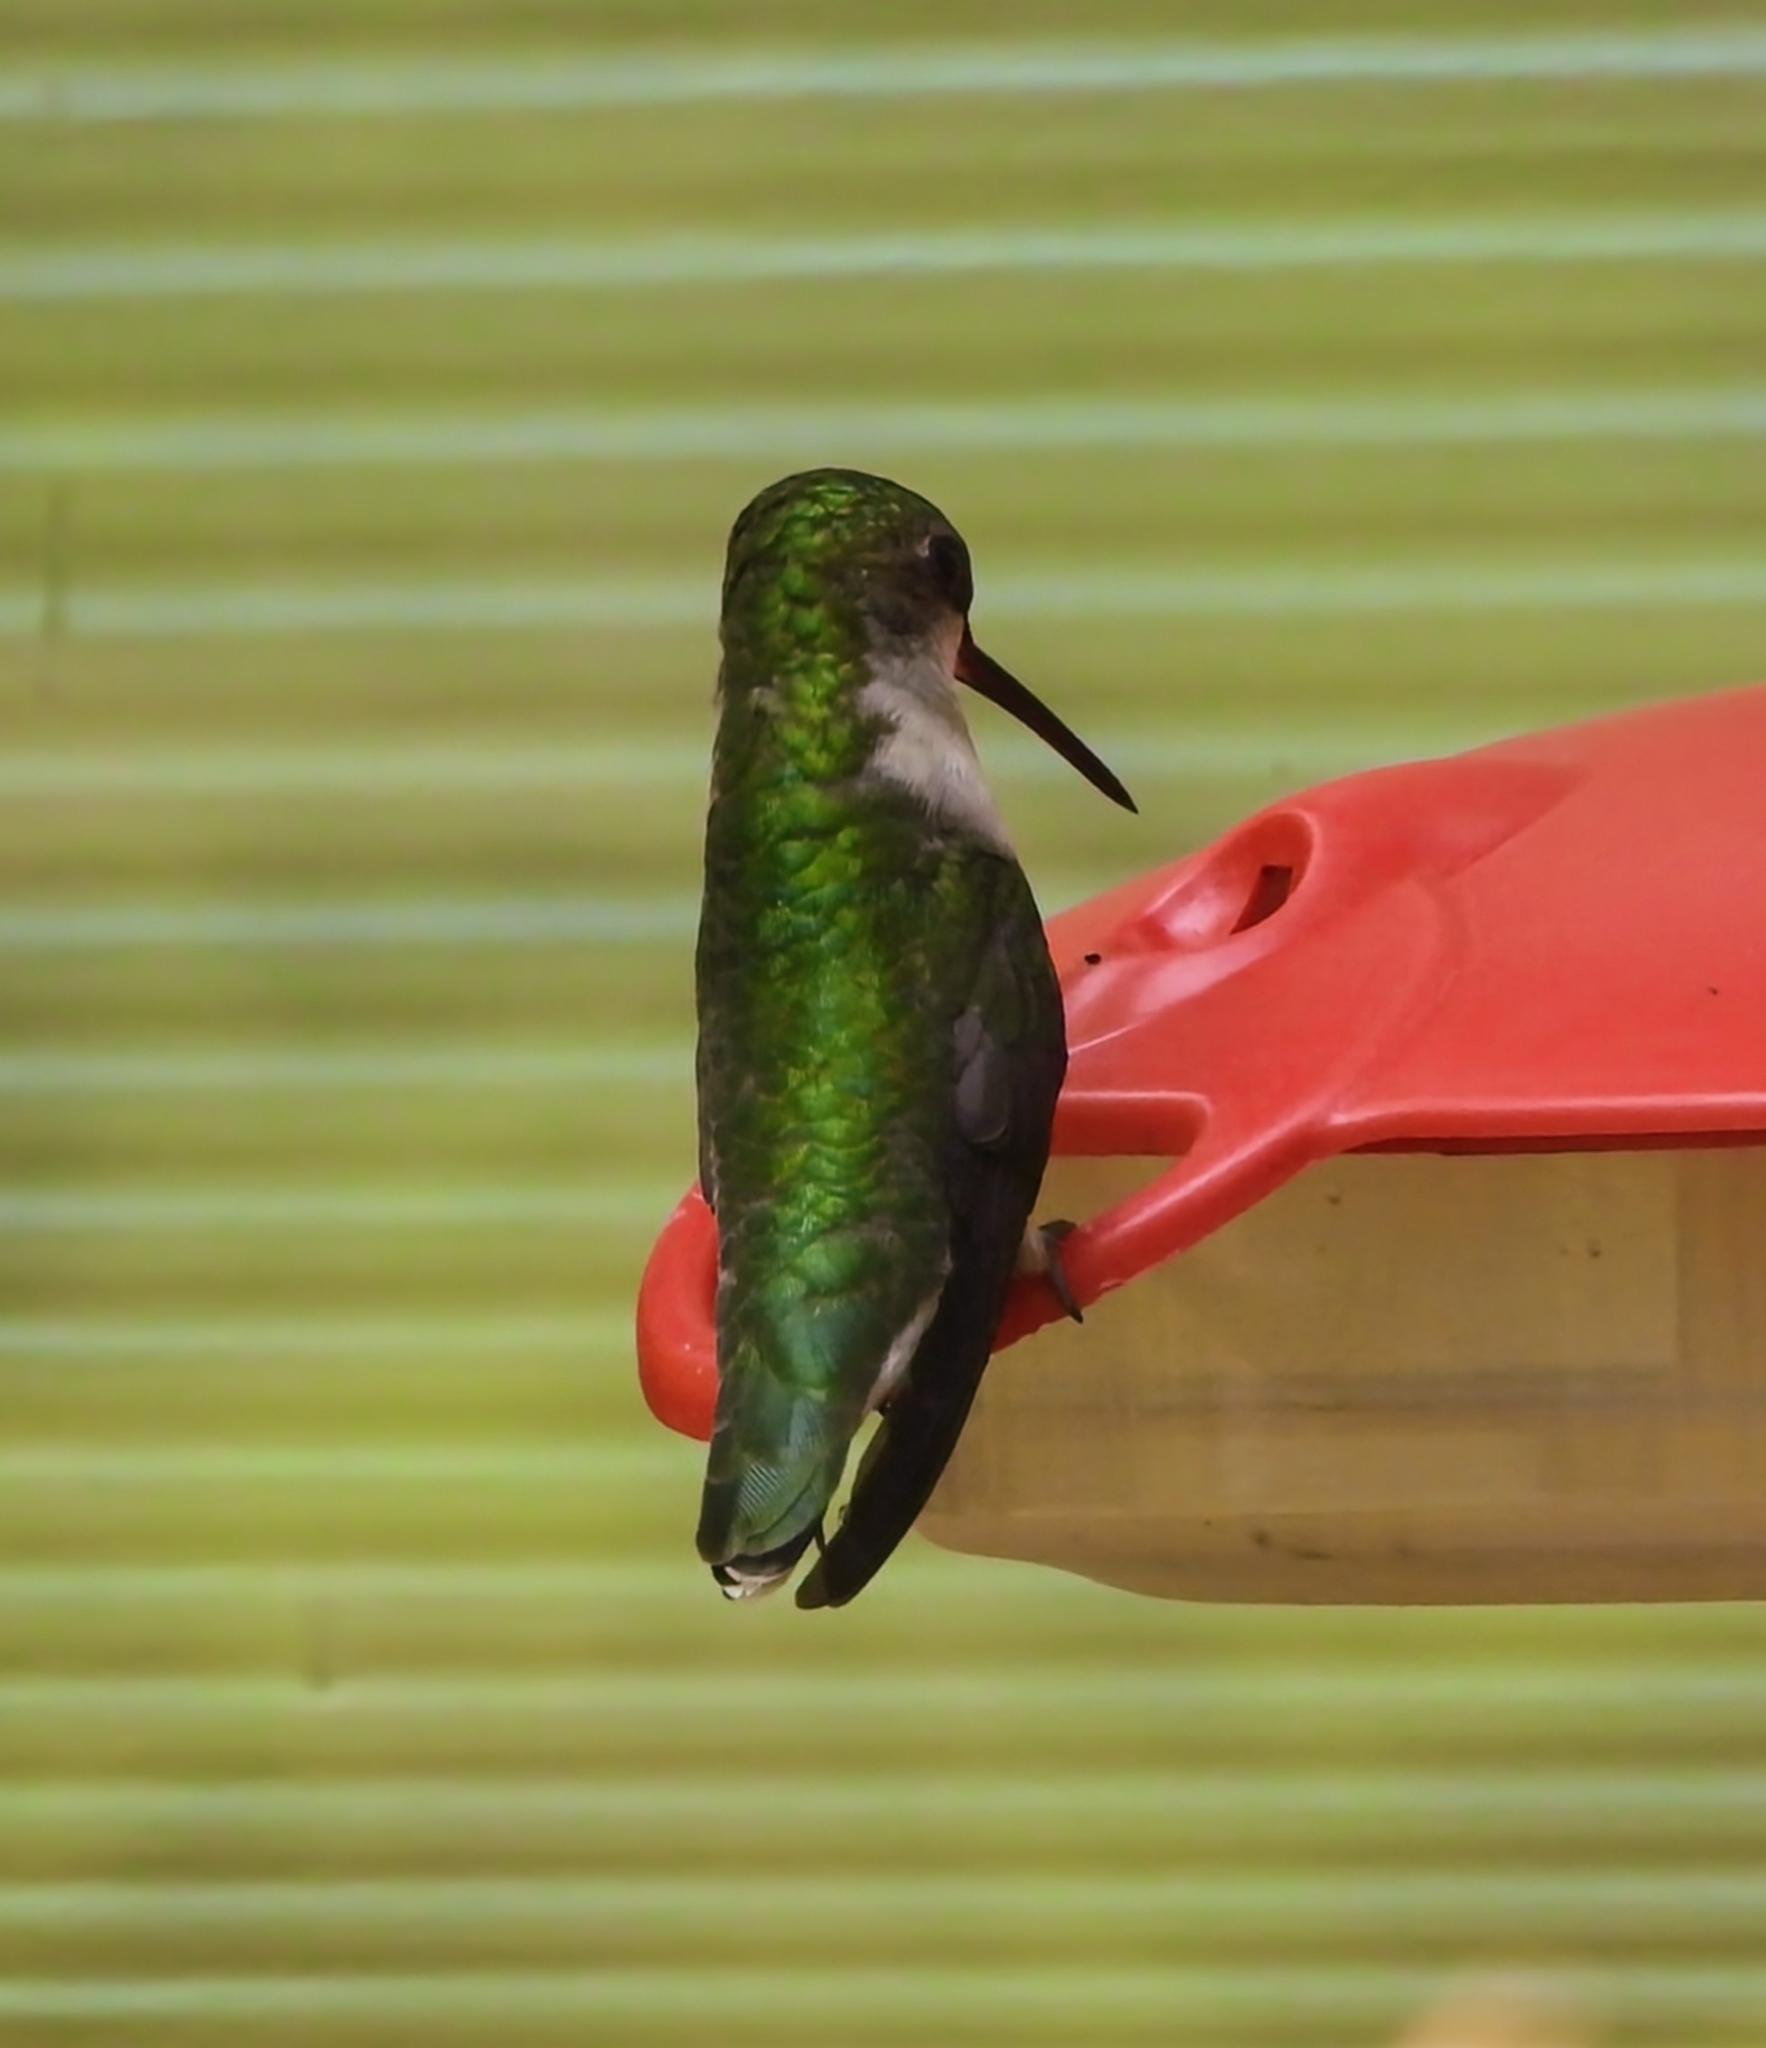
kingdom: Animalia
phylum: Chordata
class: Aves
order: Apodiformes
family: Trochilidae
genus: Archilochus
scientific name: Archilochus colubris
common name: Ruby-throated hummingbird
